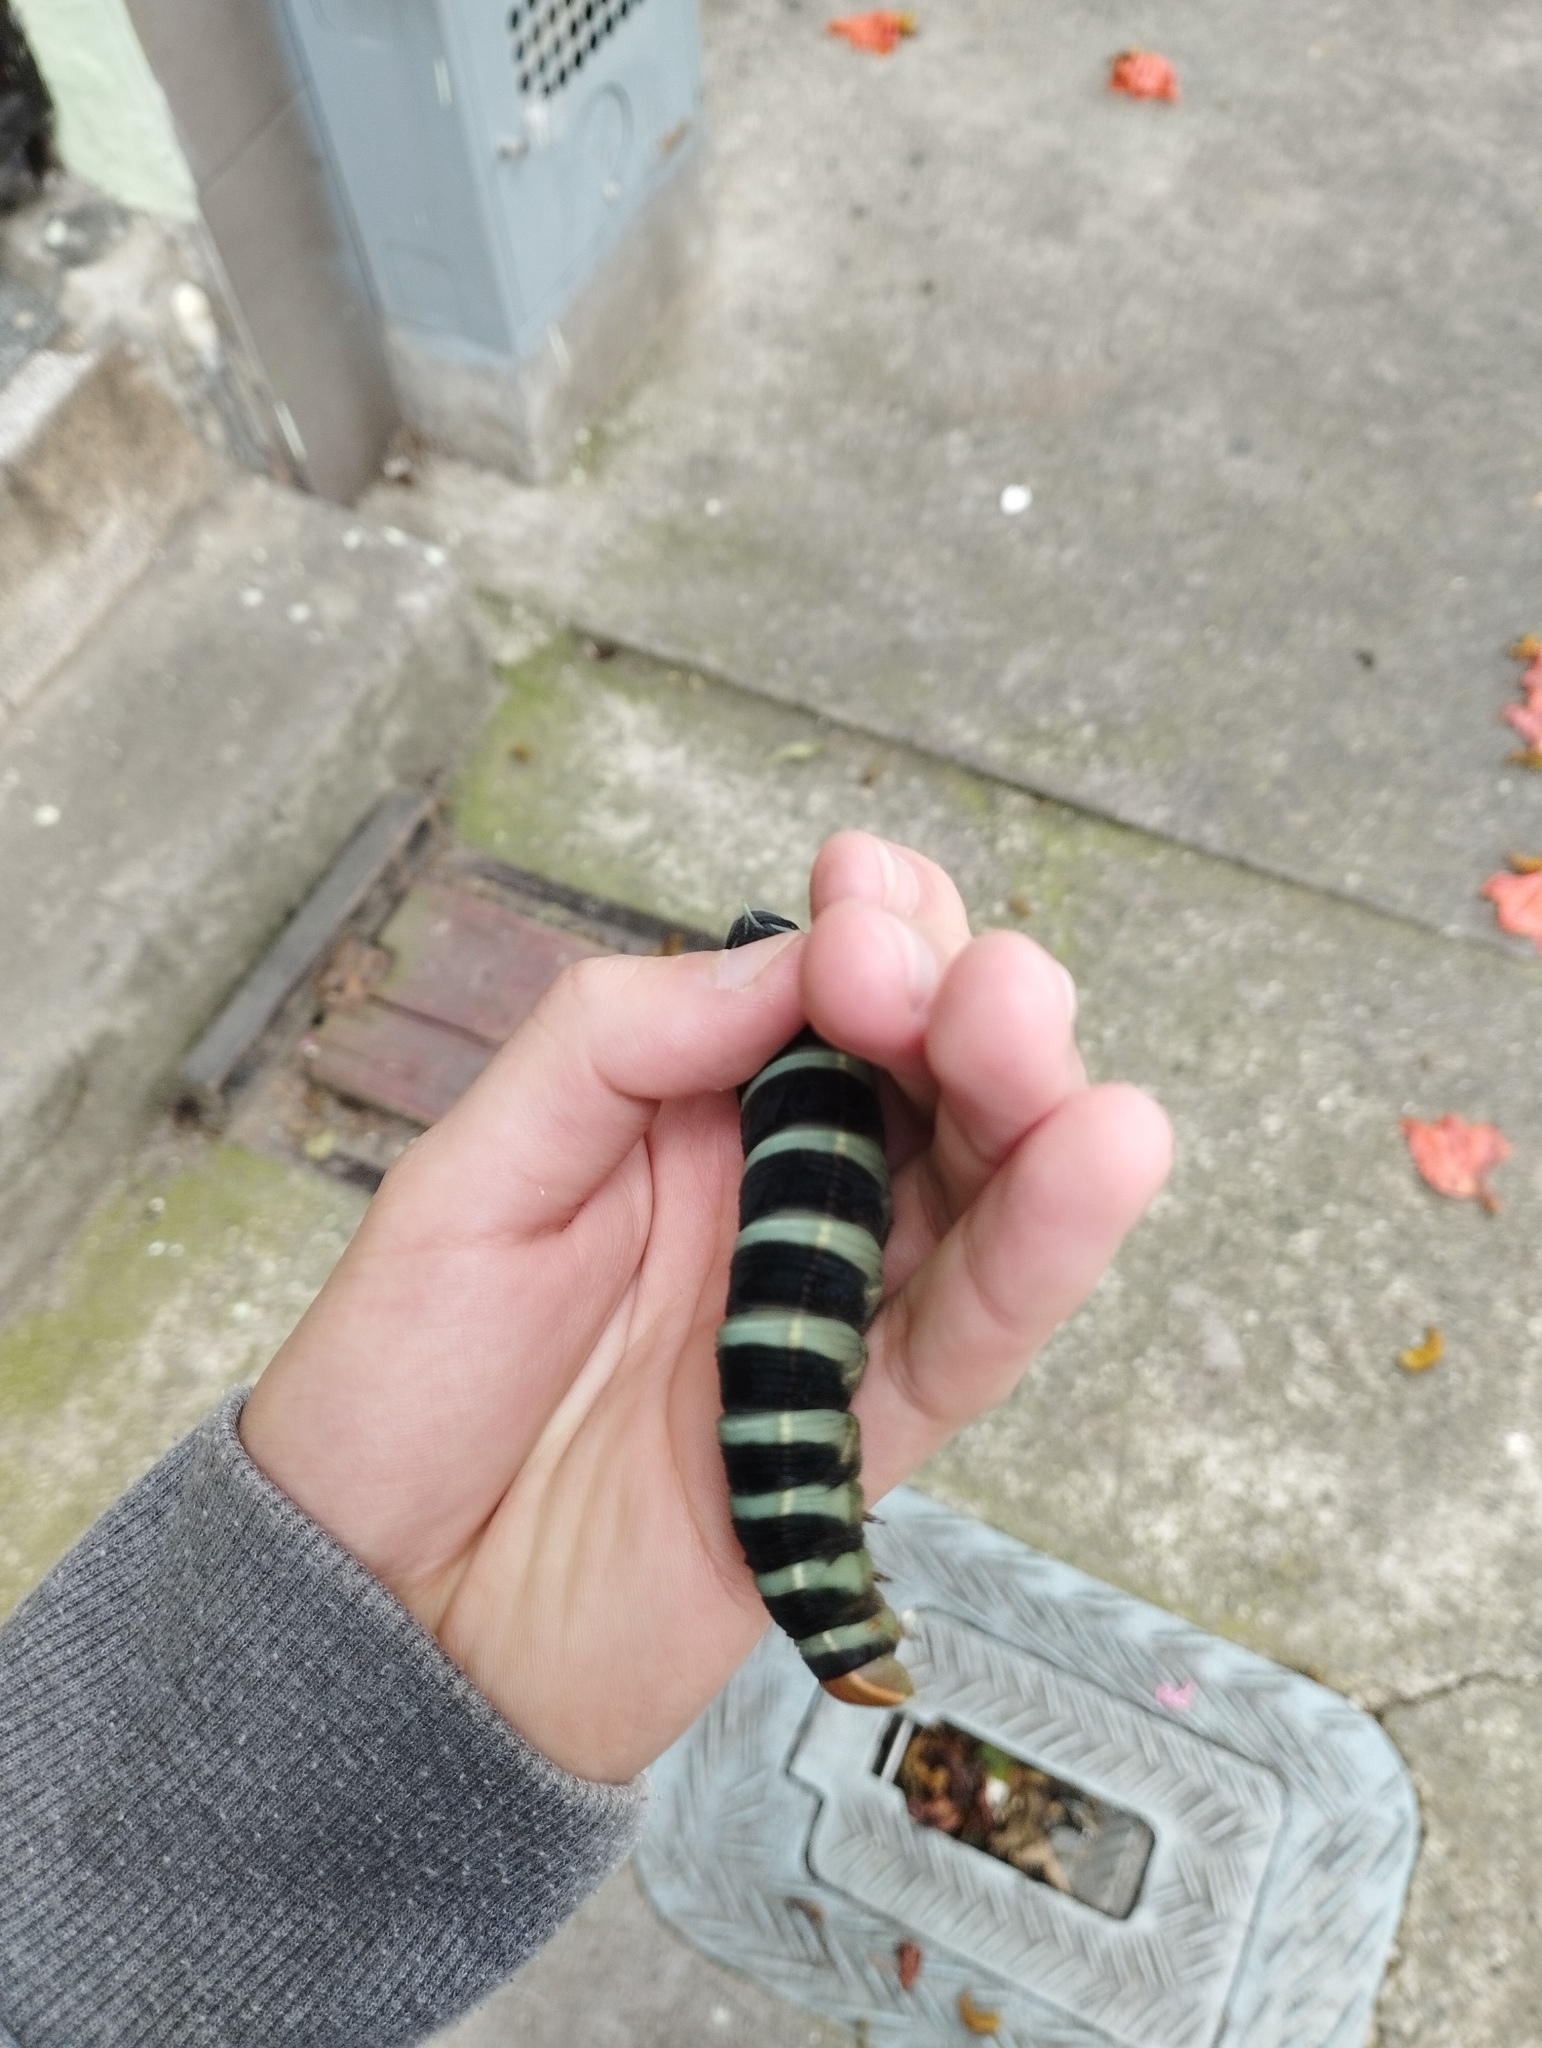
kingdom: Animalia
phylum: Arthropoda
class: Insecta
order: Lepidoptera
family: Sphingidae
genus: Pachylia
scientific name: Pachylia syces
